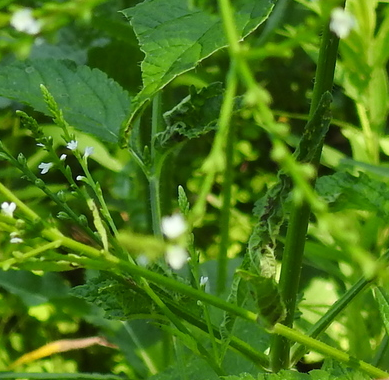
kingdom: Animalia
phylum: Arthropoda
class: Insecta
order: Diptera
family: Cecidomyiidae
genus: Clinodiplosis
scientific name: Clinodiplosis verbenae
